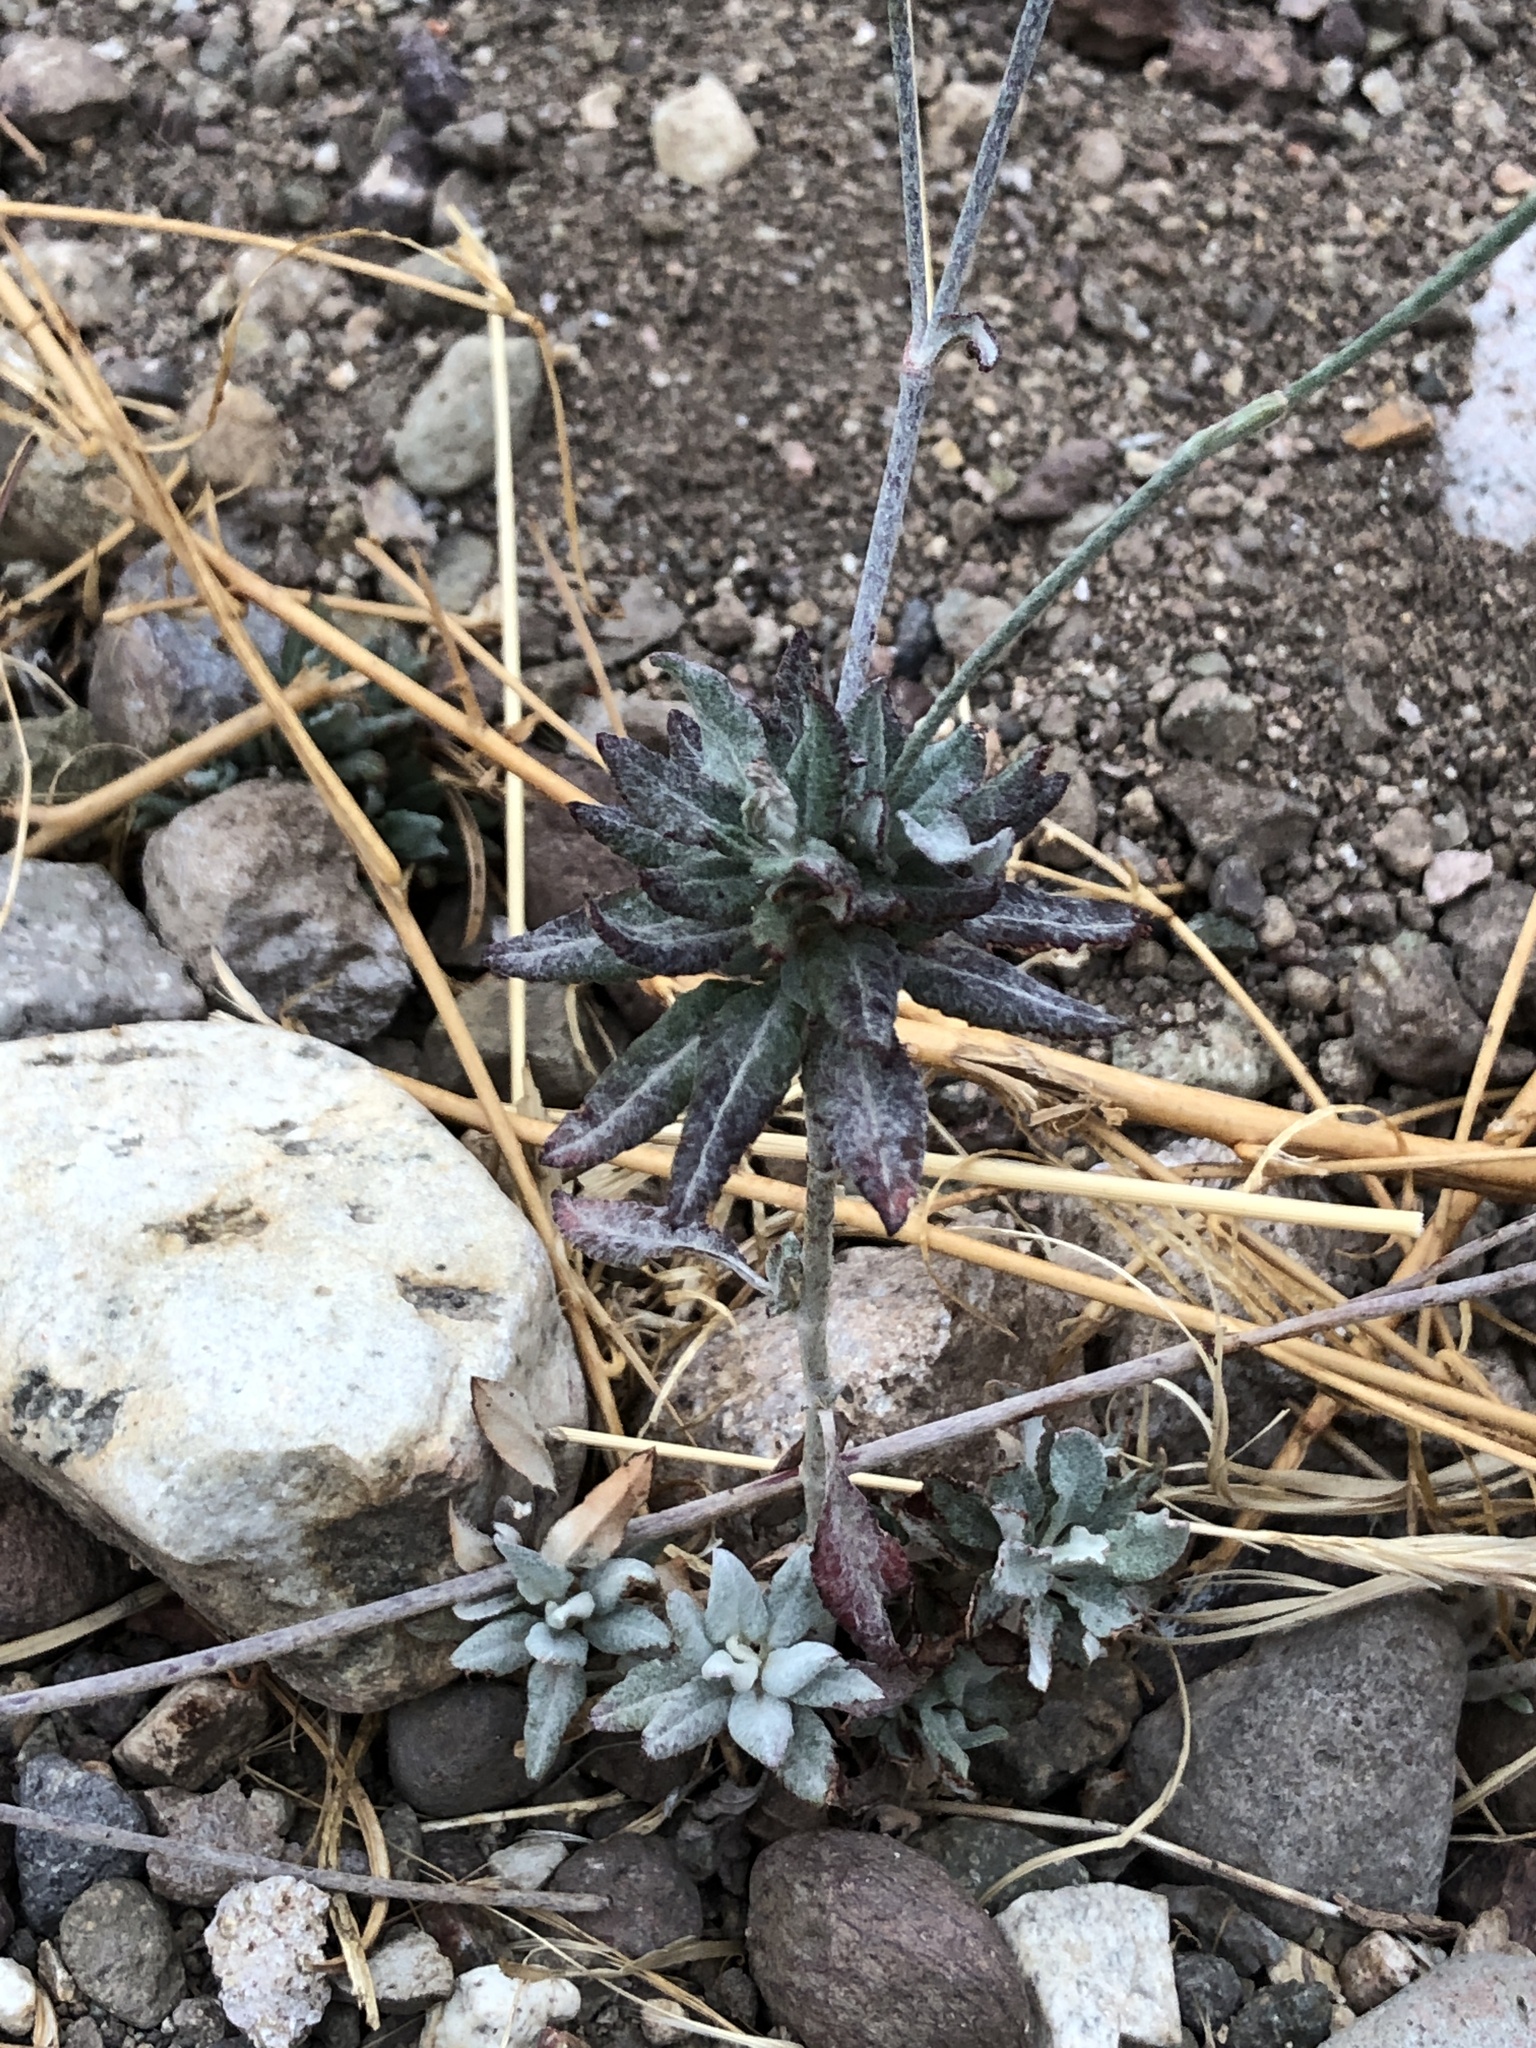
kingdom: Plantae
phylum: Tracheophyta
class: Magnoliopsida
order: Caryophyllales
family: Polygonaceae
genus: Eriogonum
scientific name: Eriogonum elongatum
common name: Long-stem wild buckwheat
